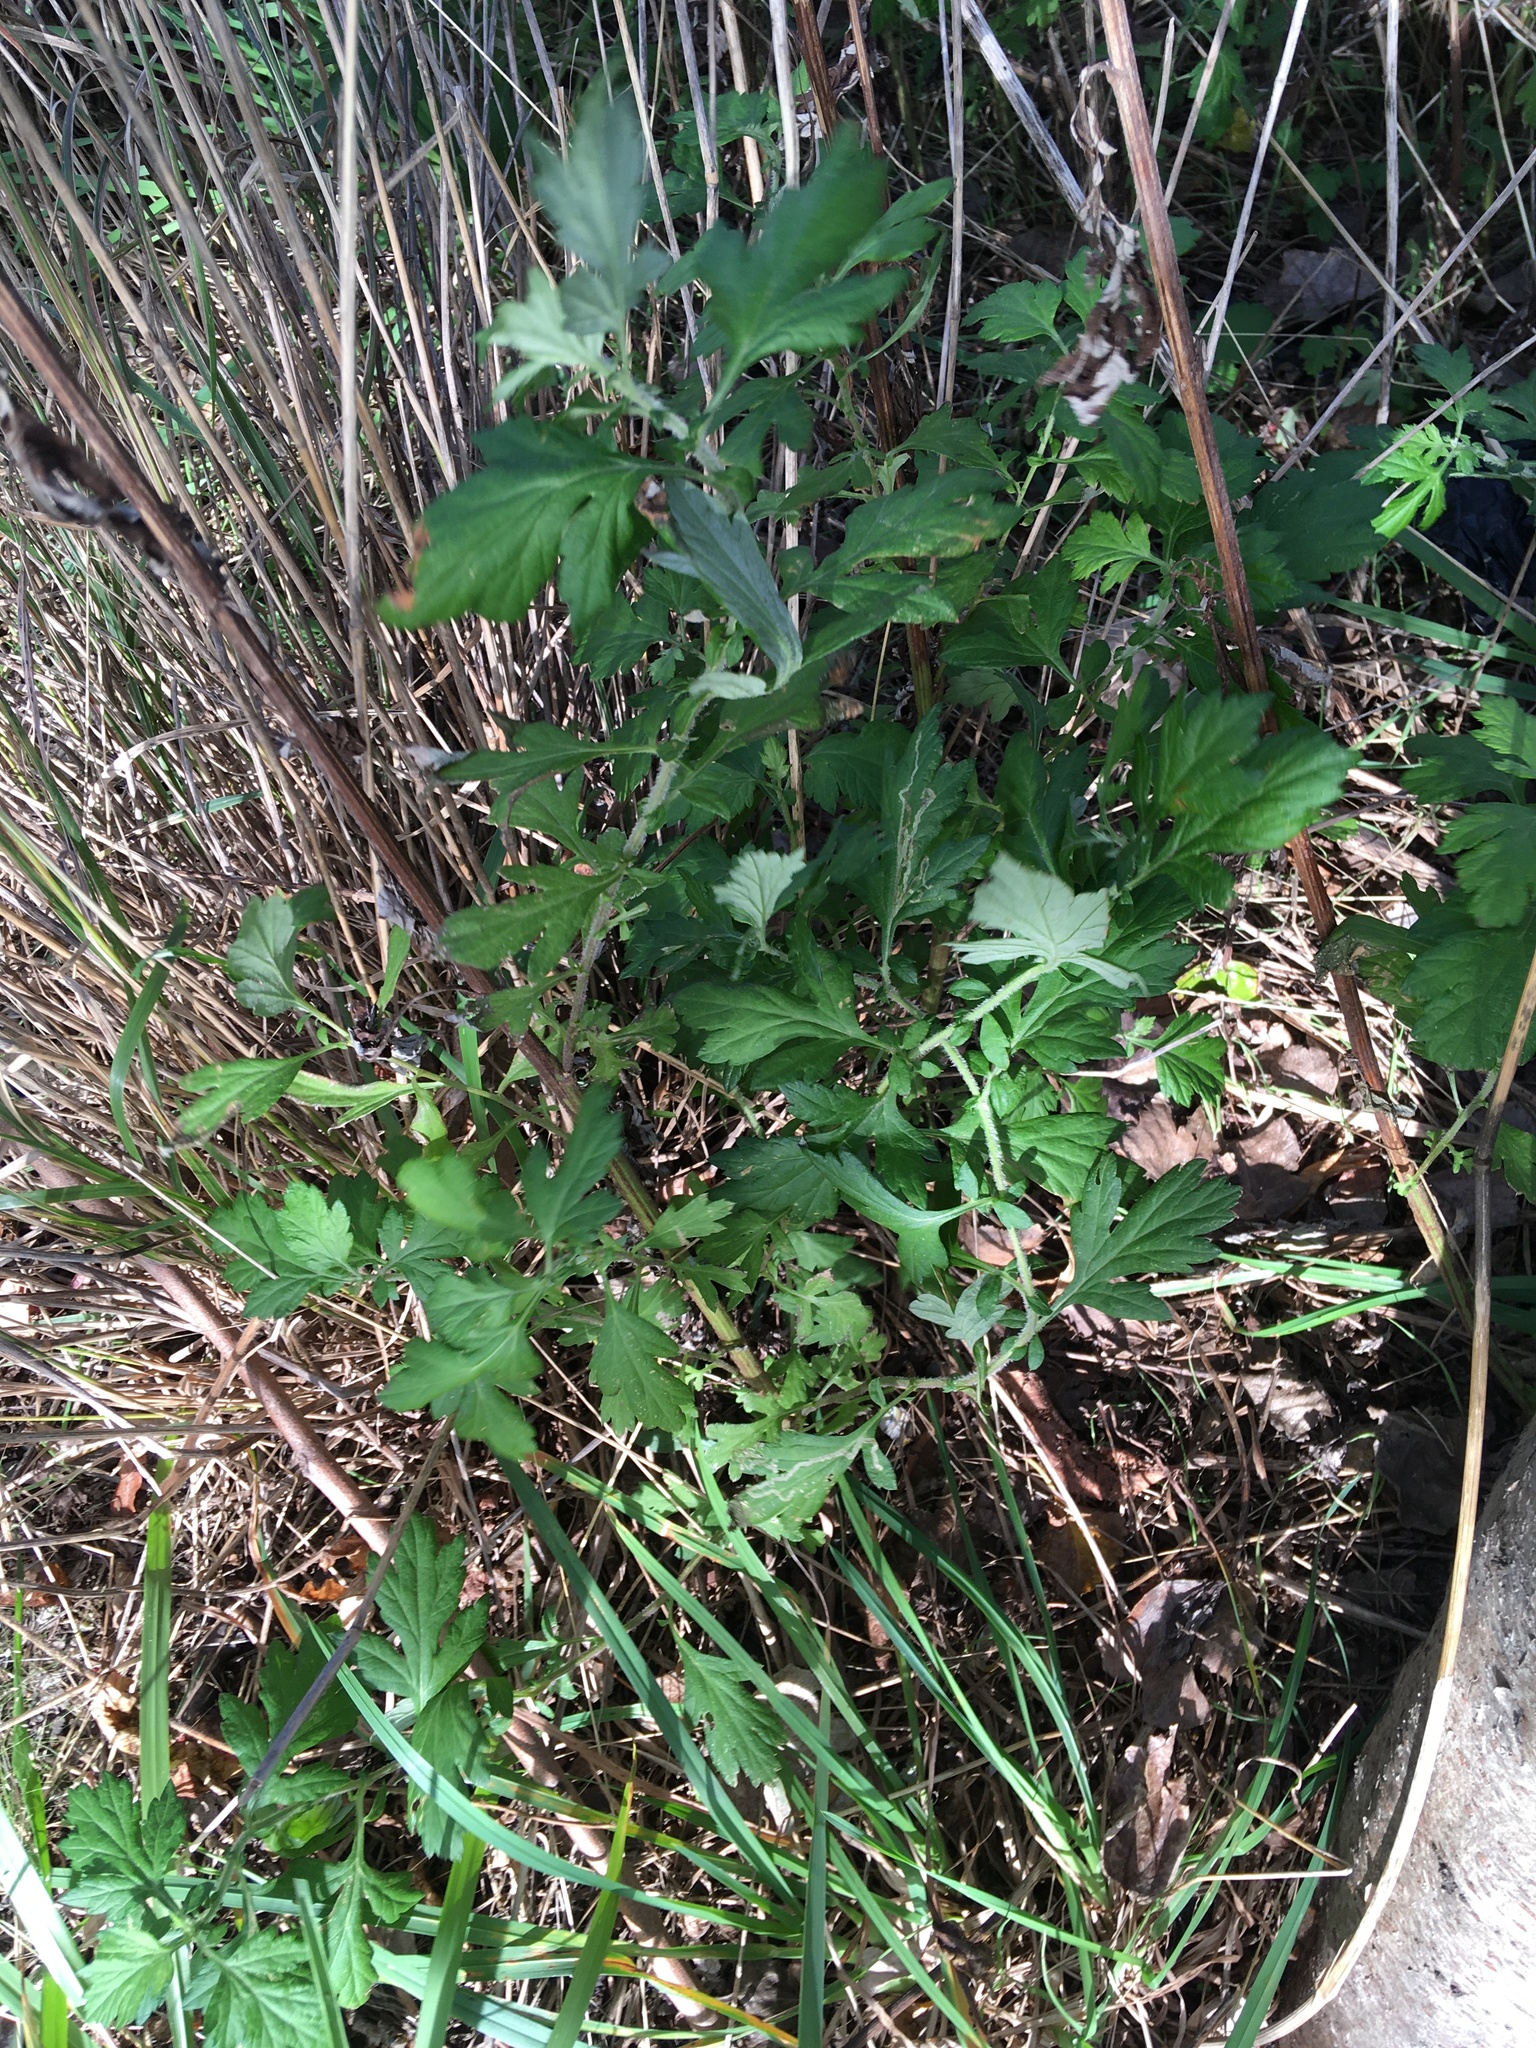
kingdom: Plantae
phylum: Tracheophyta
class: Magnoliopsida
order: Asterales
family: Asteraceae
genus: Artemisia
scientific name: Artemisia vulgaris
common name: Mugwort
